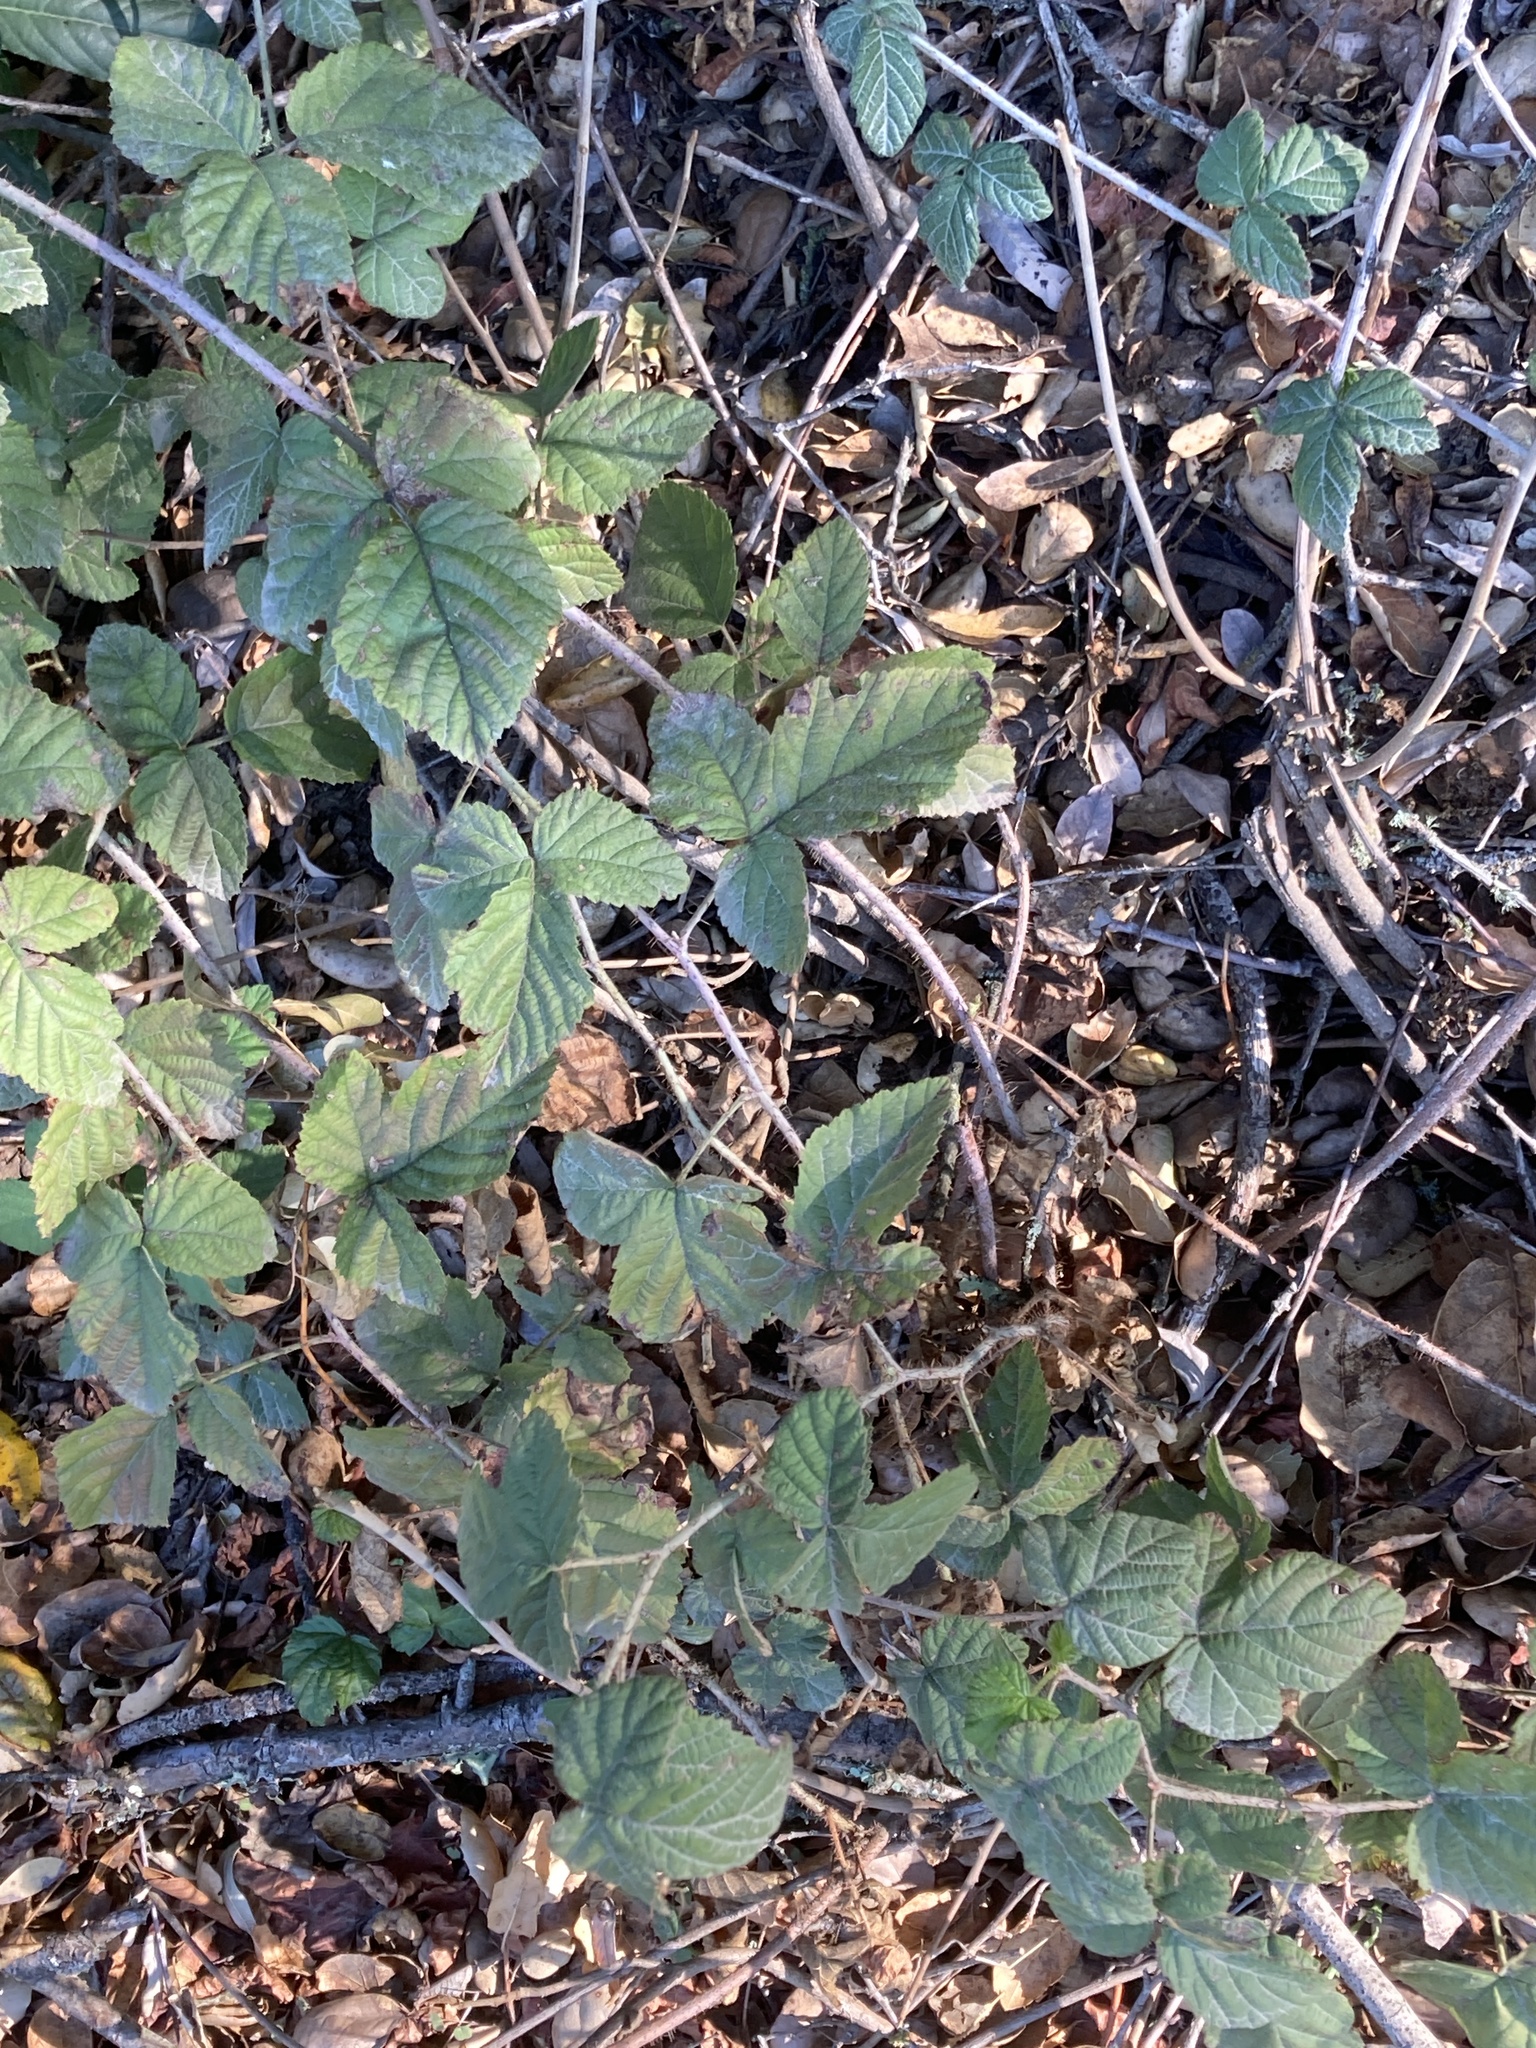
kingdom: Plantae
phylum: Tracheophyta
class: Magnoliopsida
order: Rosales
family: Rosaceae
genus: Rubus
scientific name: Rubus ursinus
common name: Pacific blackberry
